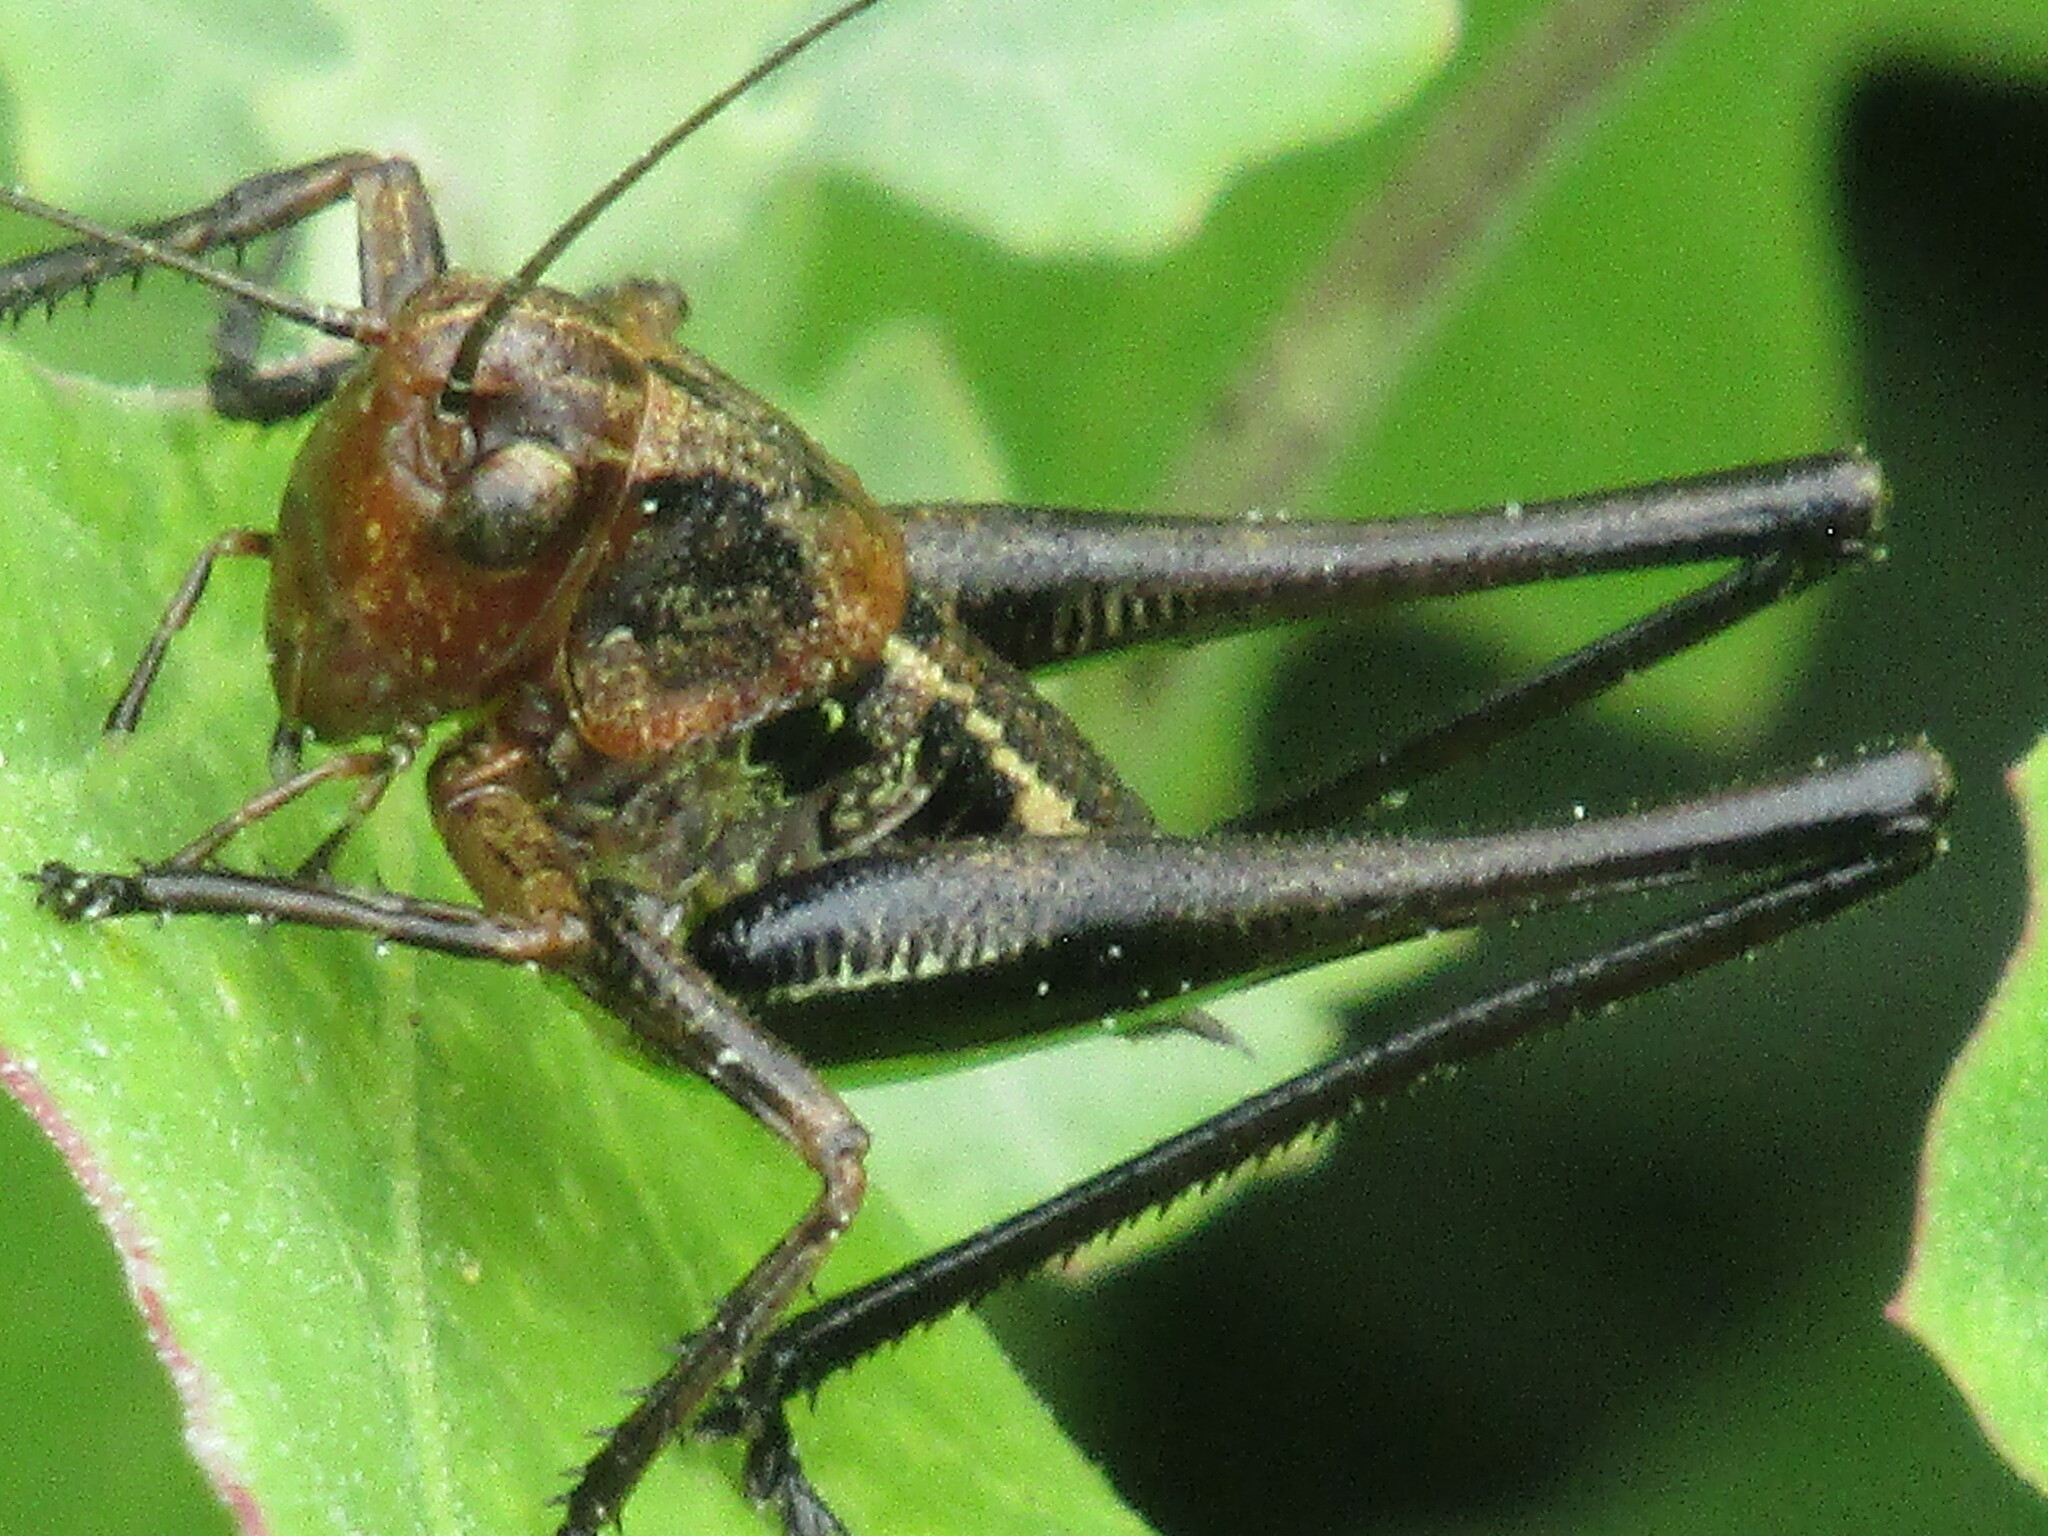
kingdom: Animalia
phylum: Arthropoda
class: Insecta
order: Orthoptera
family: Tettigoniidae
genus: Decticus
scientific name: Decticus albifrons
